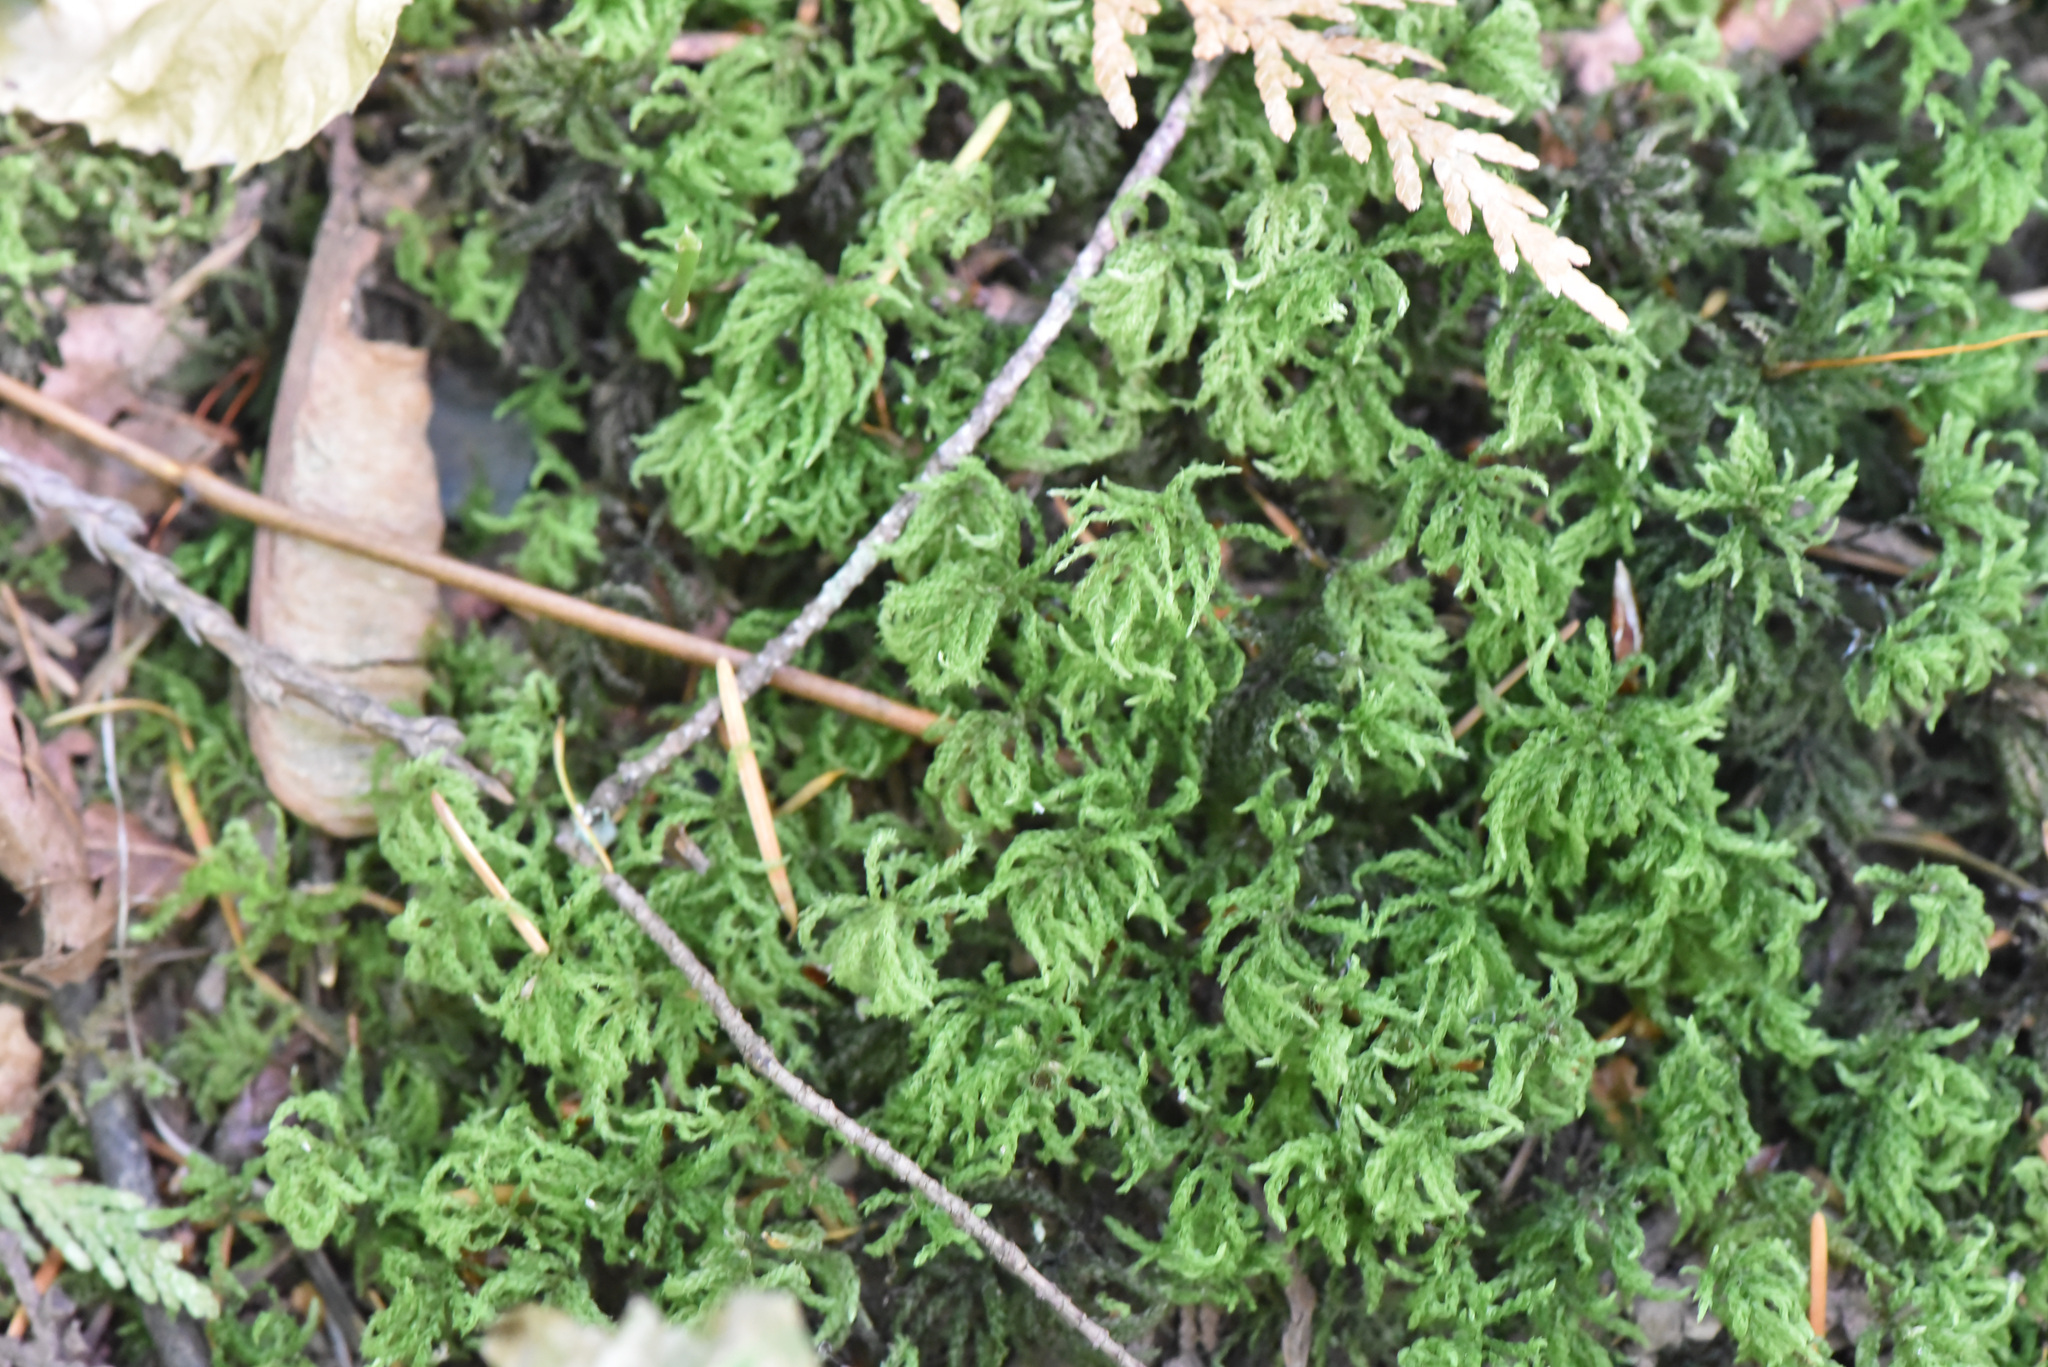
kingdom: Plantae
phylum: Bryophyta
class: Bryopsida
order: Bryales
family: Mniaceae
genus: Leucolepis
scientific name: Leucolepis acanthoneura
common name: Leucolepis umbrella moss
